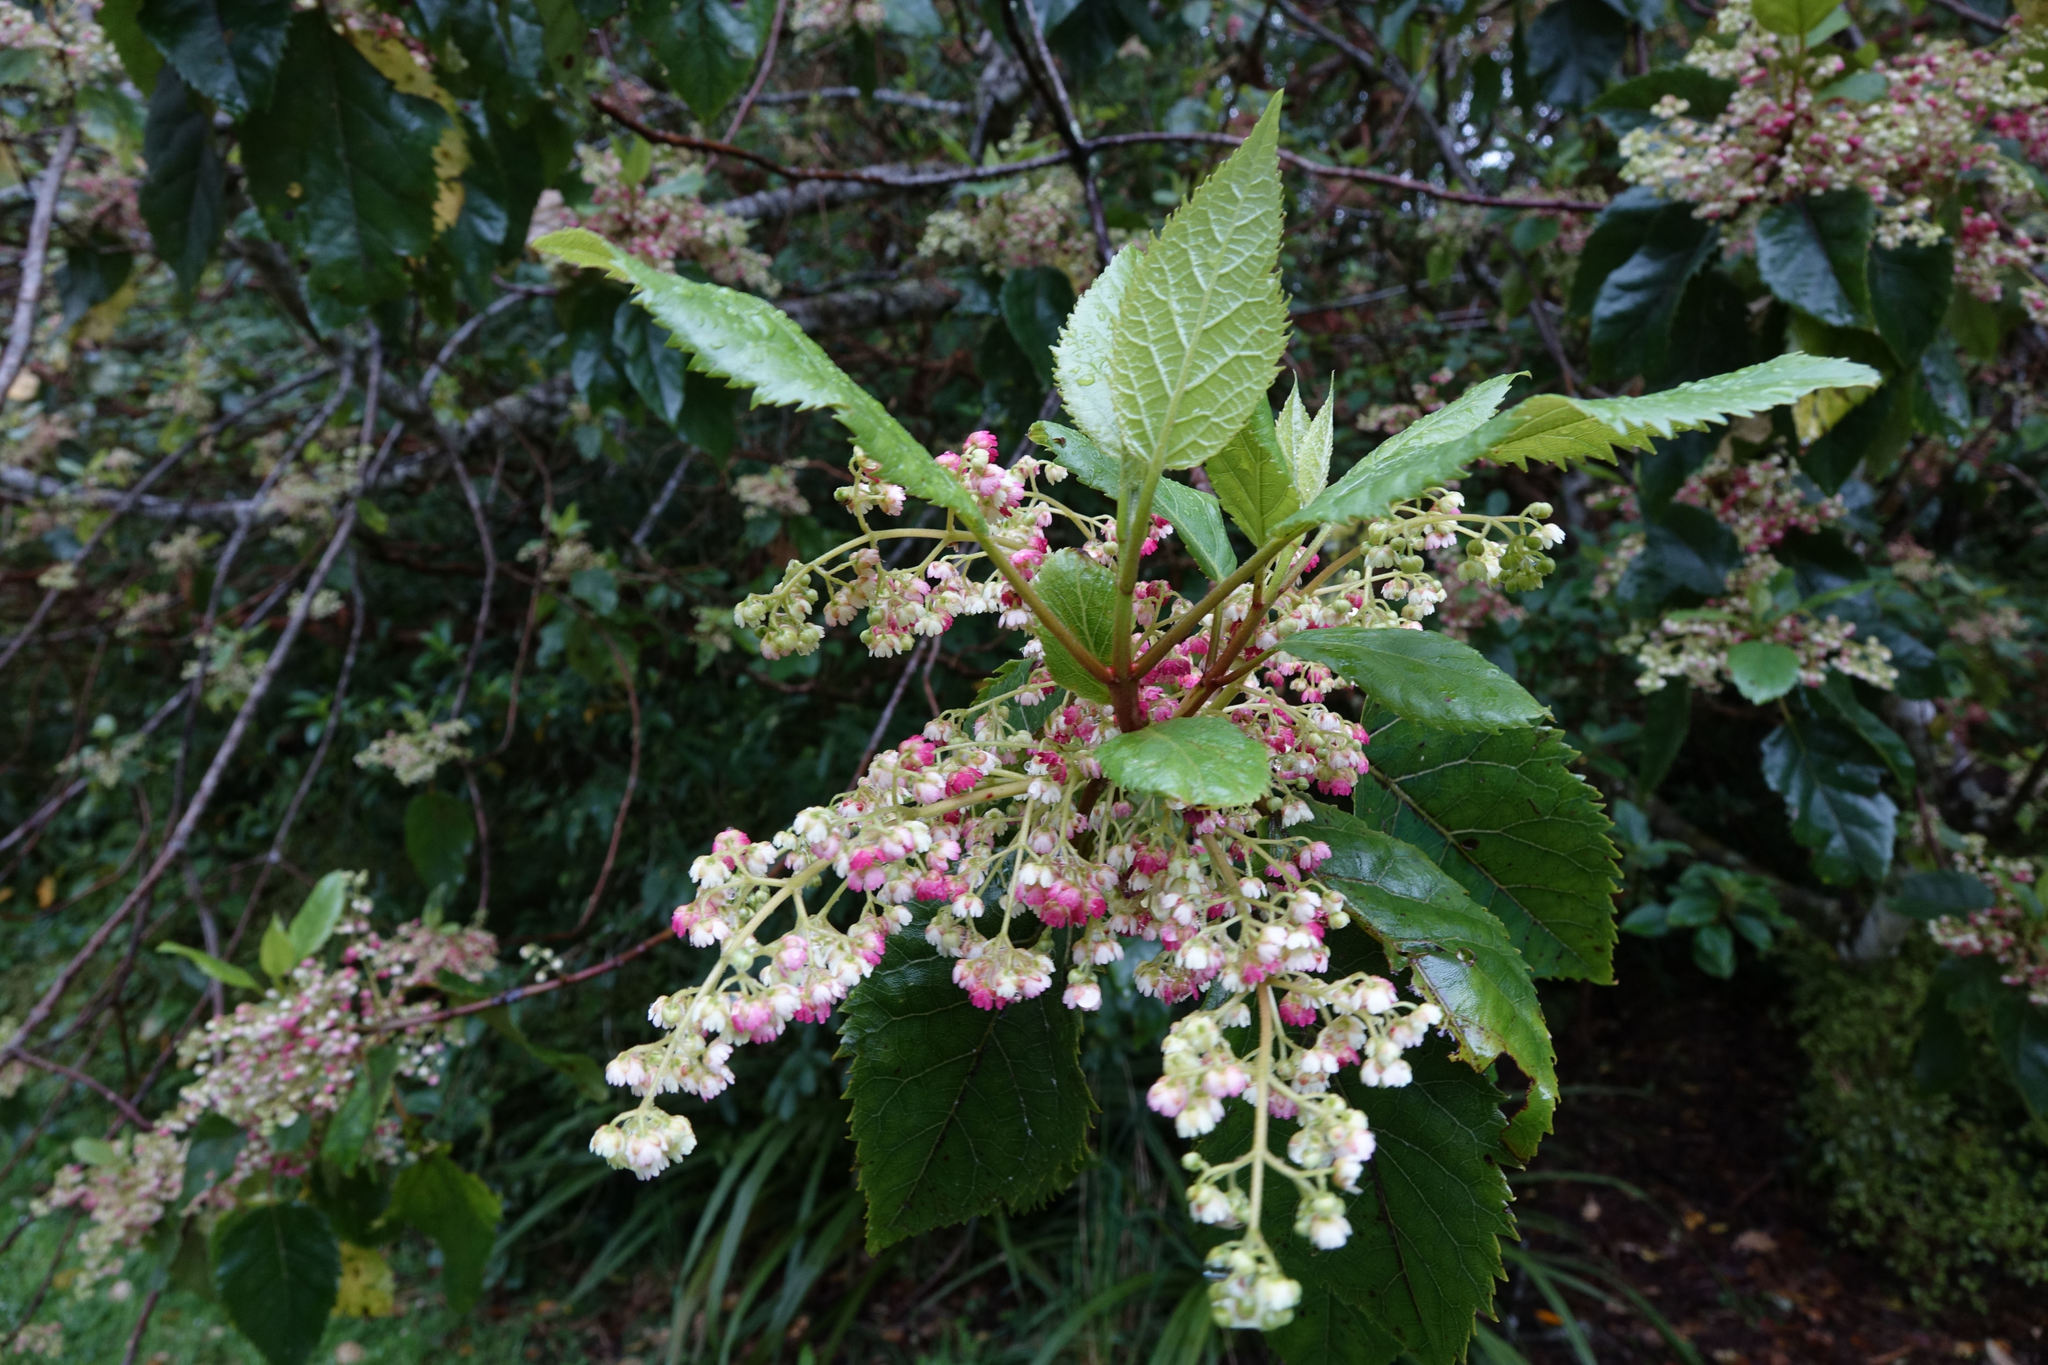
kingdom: Plantae
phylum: Tracheophyta
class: Magnoliopsida
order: Oxalidales
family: Elaeocarpaceae
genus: Aristotelia
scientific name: Aristotelia serrata
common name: New zealand wineberry
